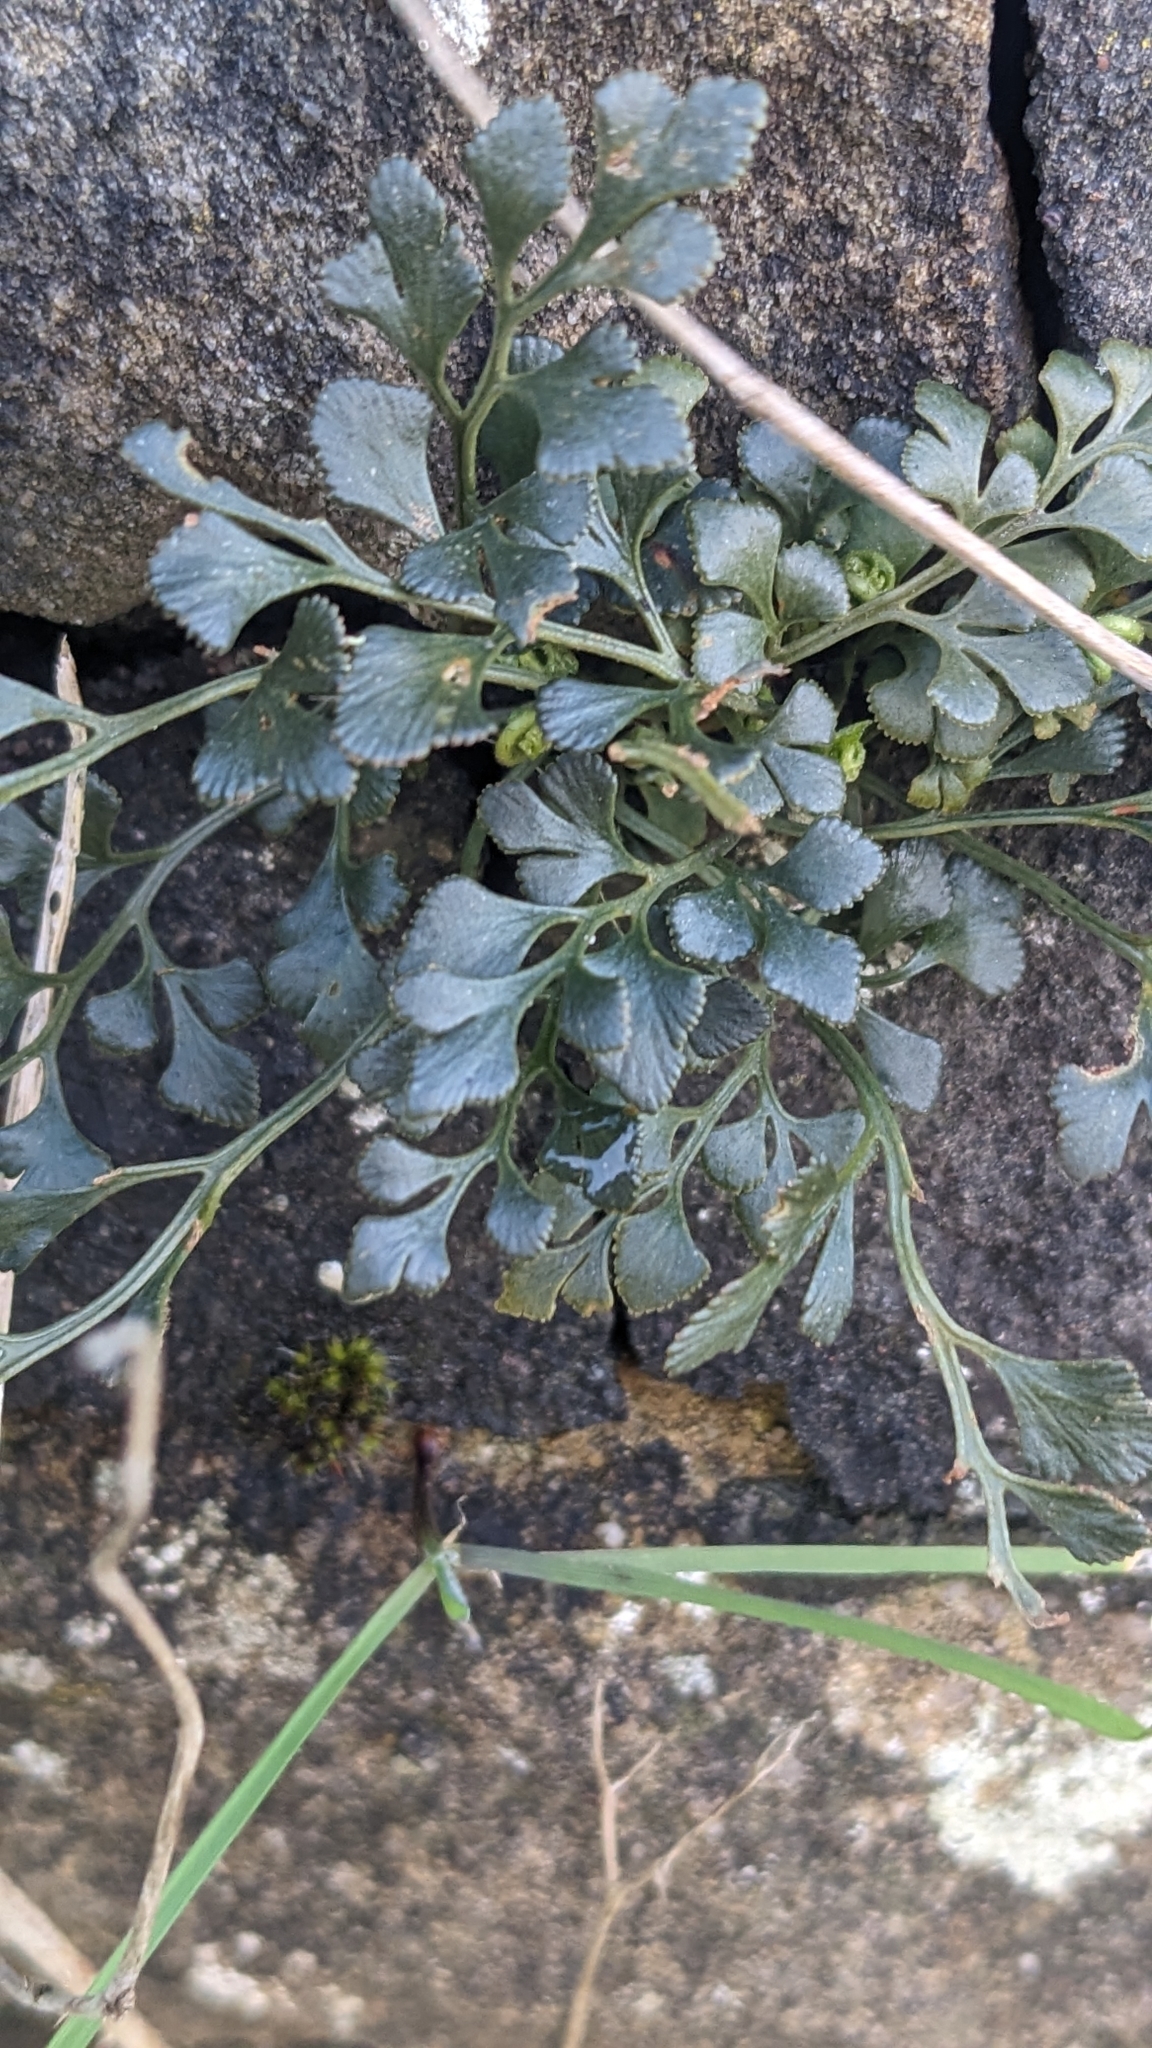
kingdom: Plantae
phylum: Tracheophyta
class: Polypodiopsida
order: Polypodiales
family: Aspleniaceae
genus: Asplenium
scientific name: Asplenium ruta-muraria
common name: Wall-rue
